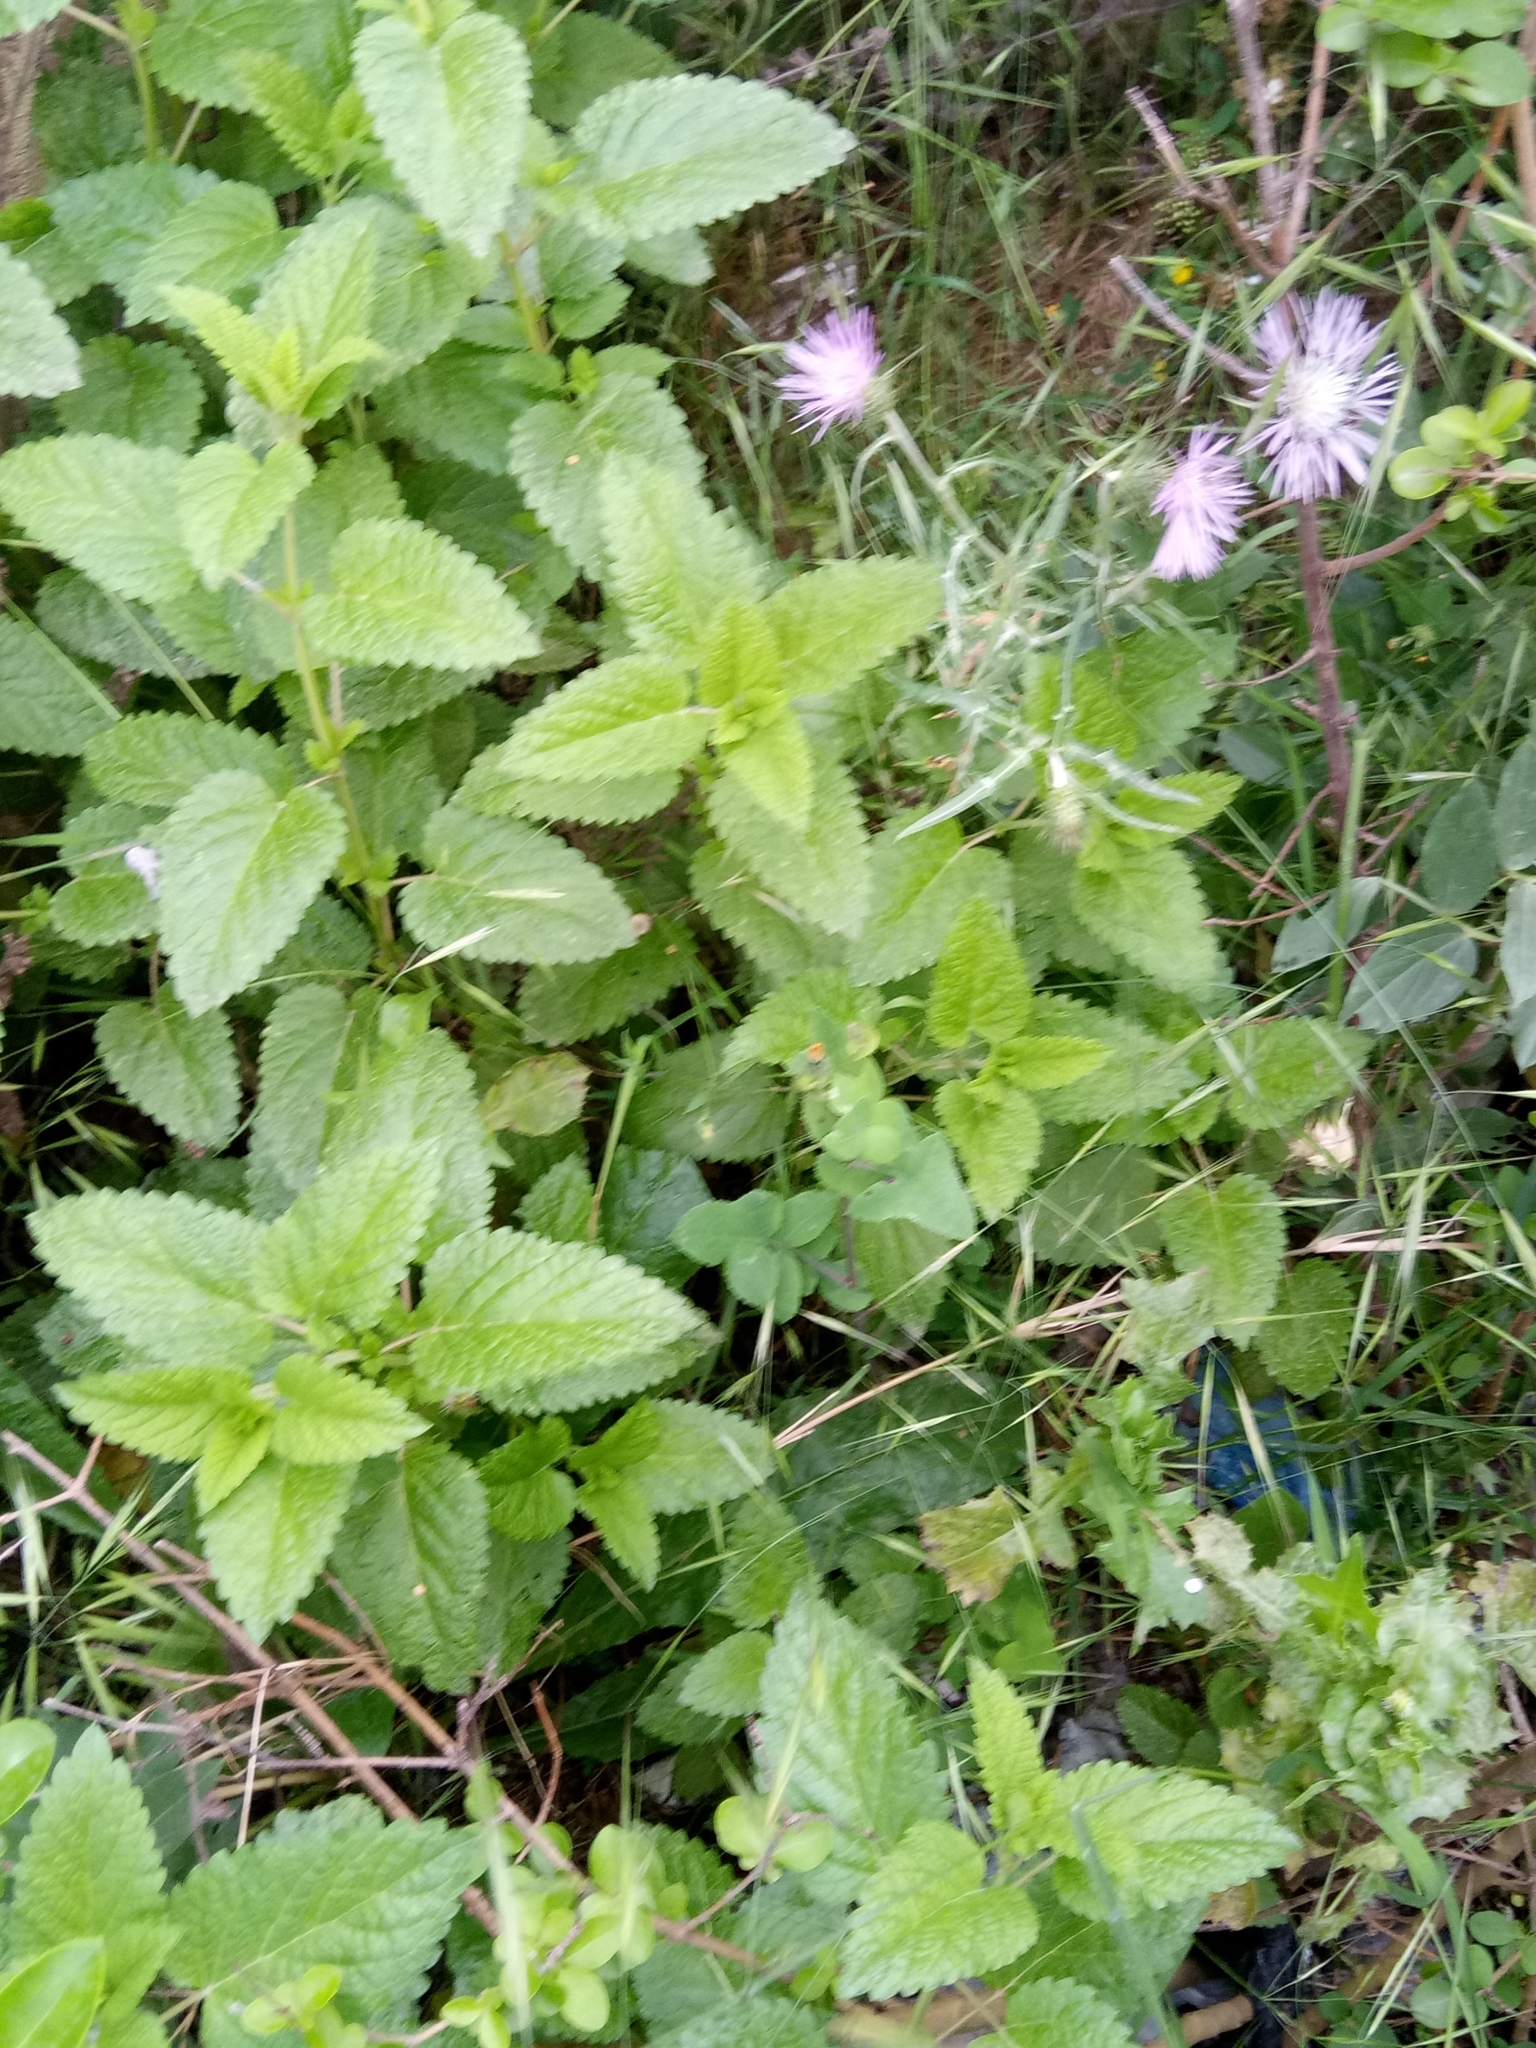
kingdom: Plantae
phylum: Tracheophyta
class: Magnoliopsida
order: Lamiales
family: Lamiaceae
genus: Melissa
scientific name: Melissa officinalis
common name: Balm
